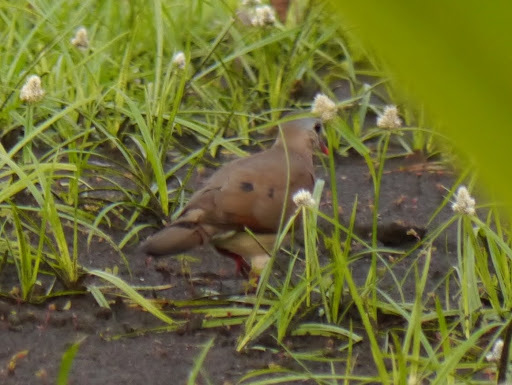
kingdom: Animalia
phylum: Chordata
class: Aves
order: Columbiformes
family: Columbidae
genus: Turtur
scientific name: Turtur afer
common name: Blue-spotted wood dove
